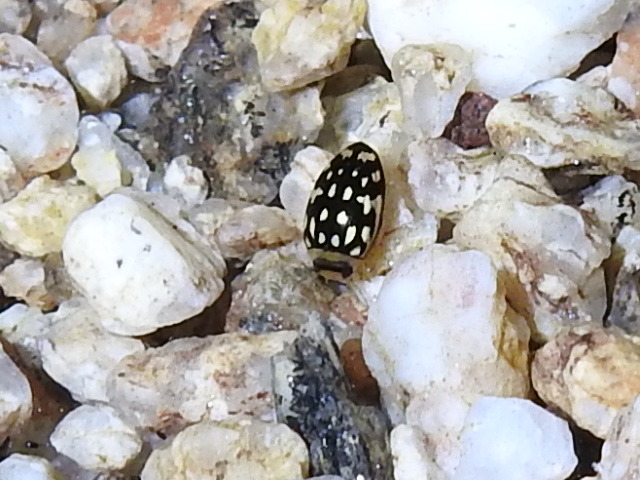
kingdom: Animalia
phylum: Arthropoda
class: Insecta
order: Coleoptera
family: Dytiscidae
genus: Laccophilus
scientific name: Laccophilus pictus
